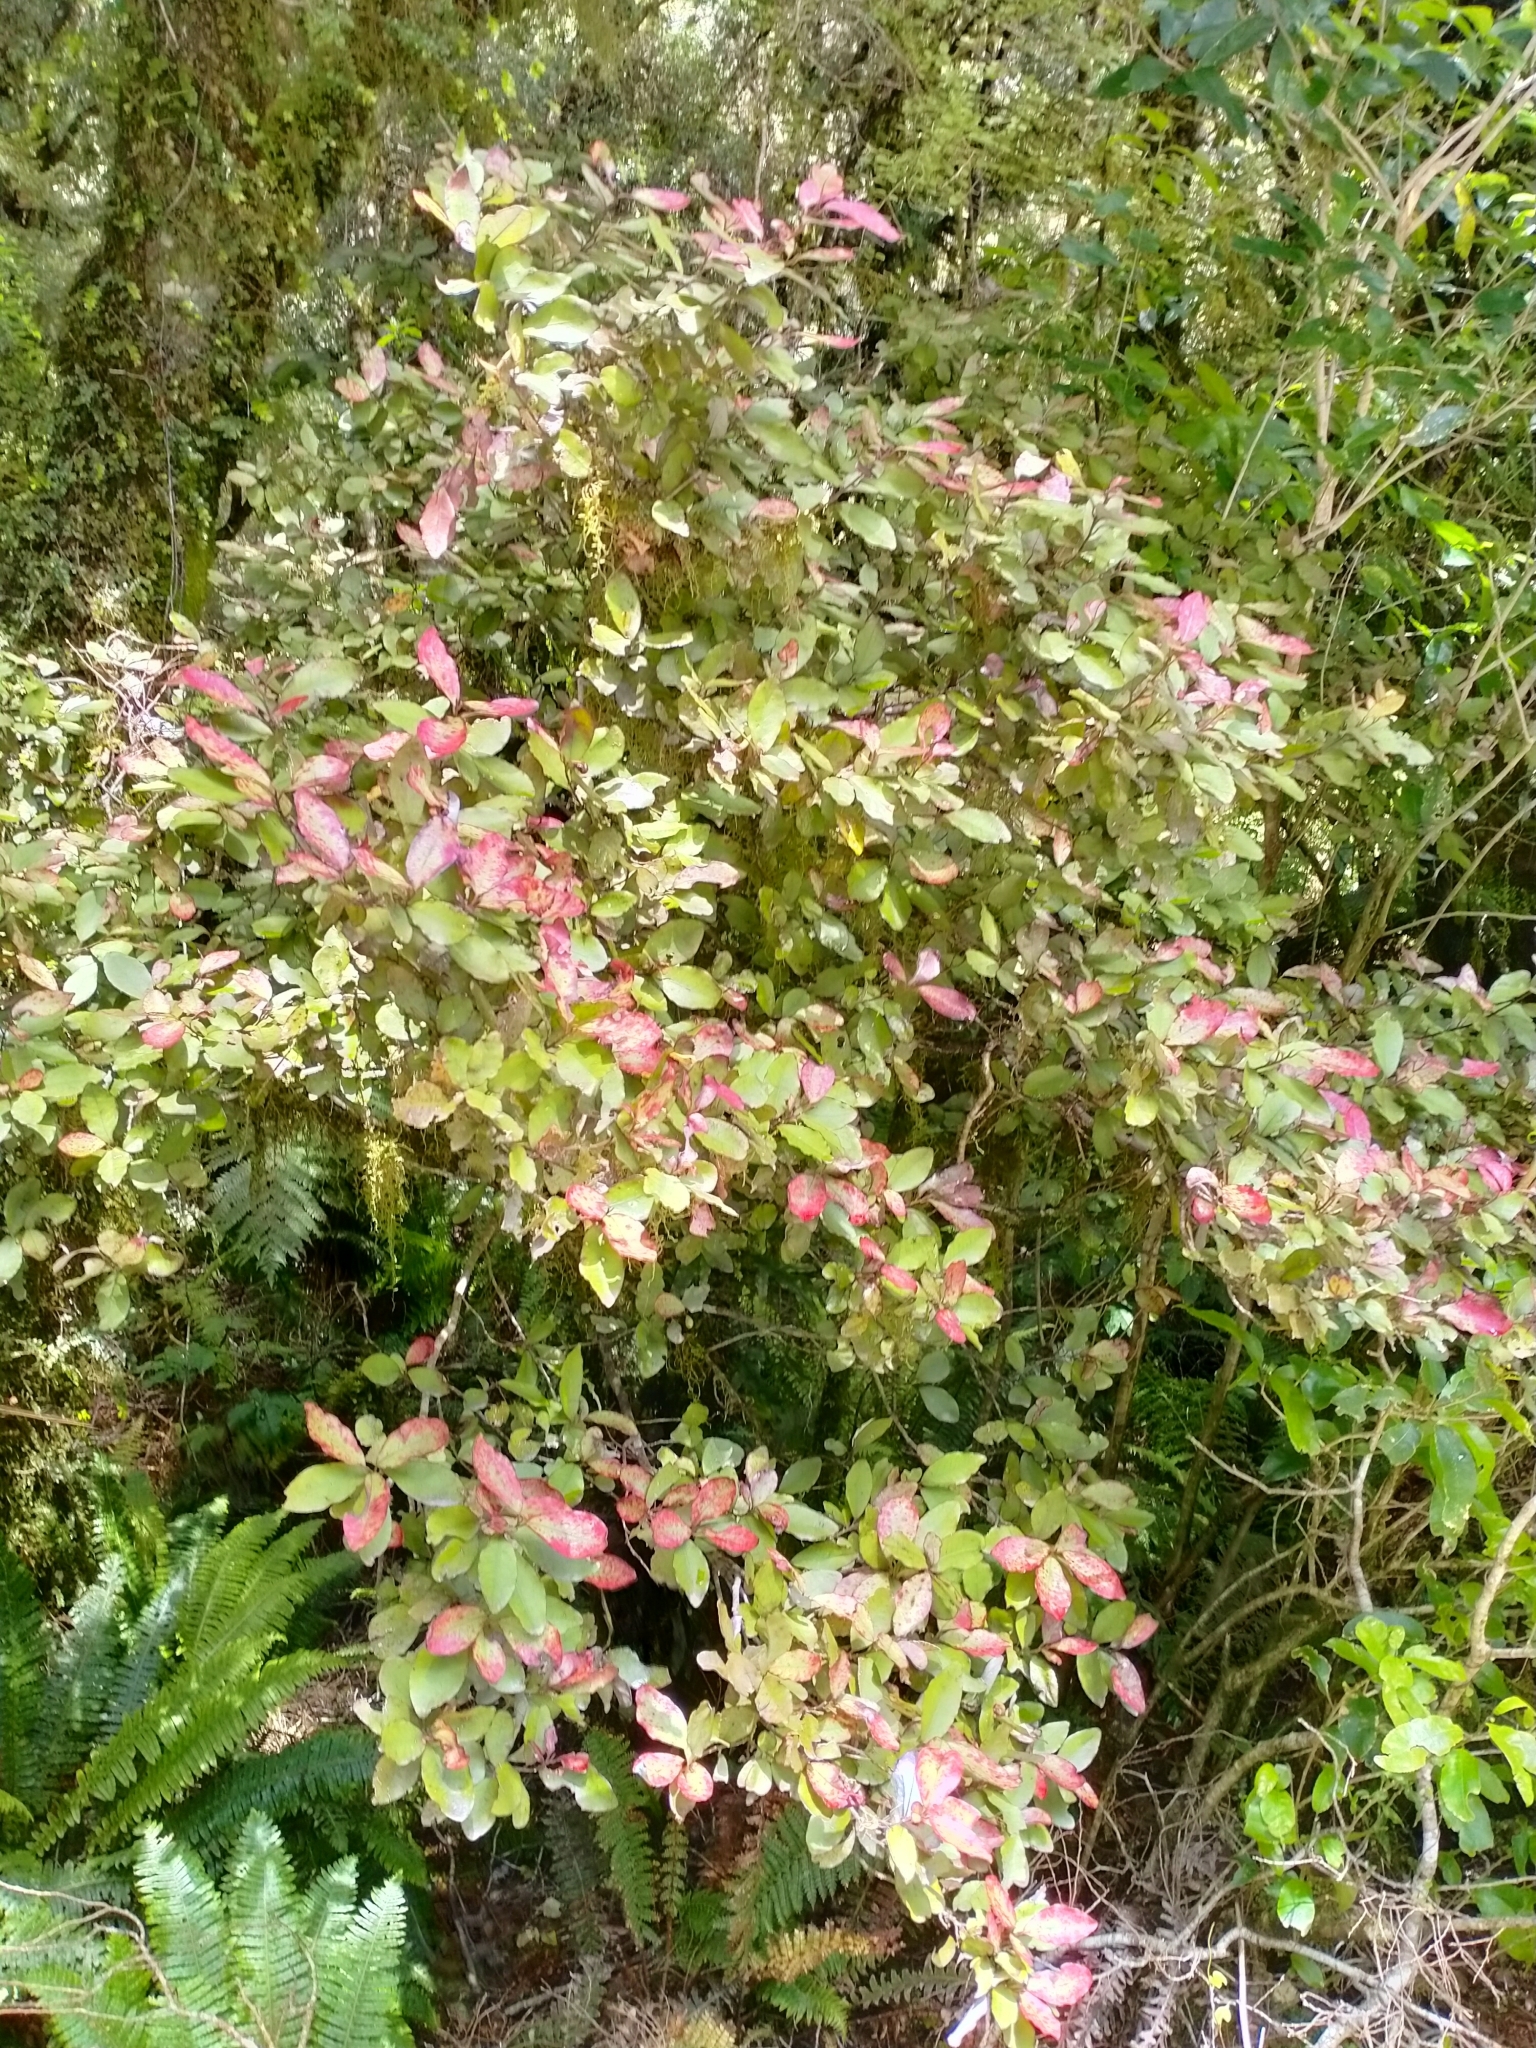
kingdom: Plantae
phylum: Tracheophyta
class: Magnoliopsida
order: Canellales
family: Winteraceae
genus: Pseudowintera
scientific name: Pseudowintera colorata
